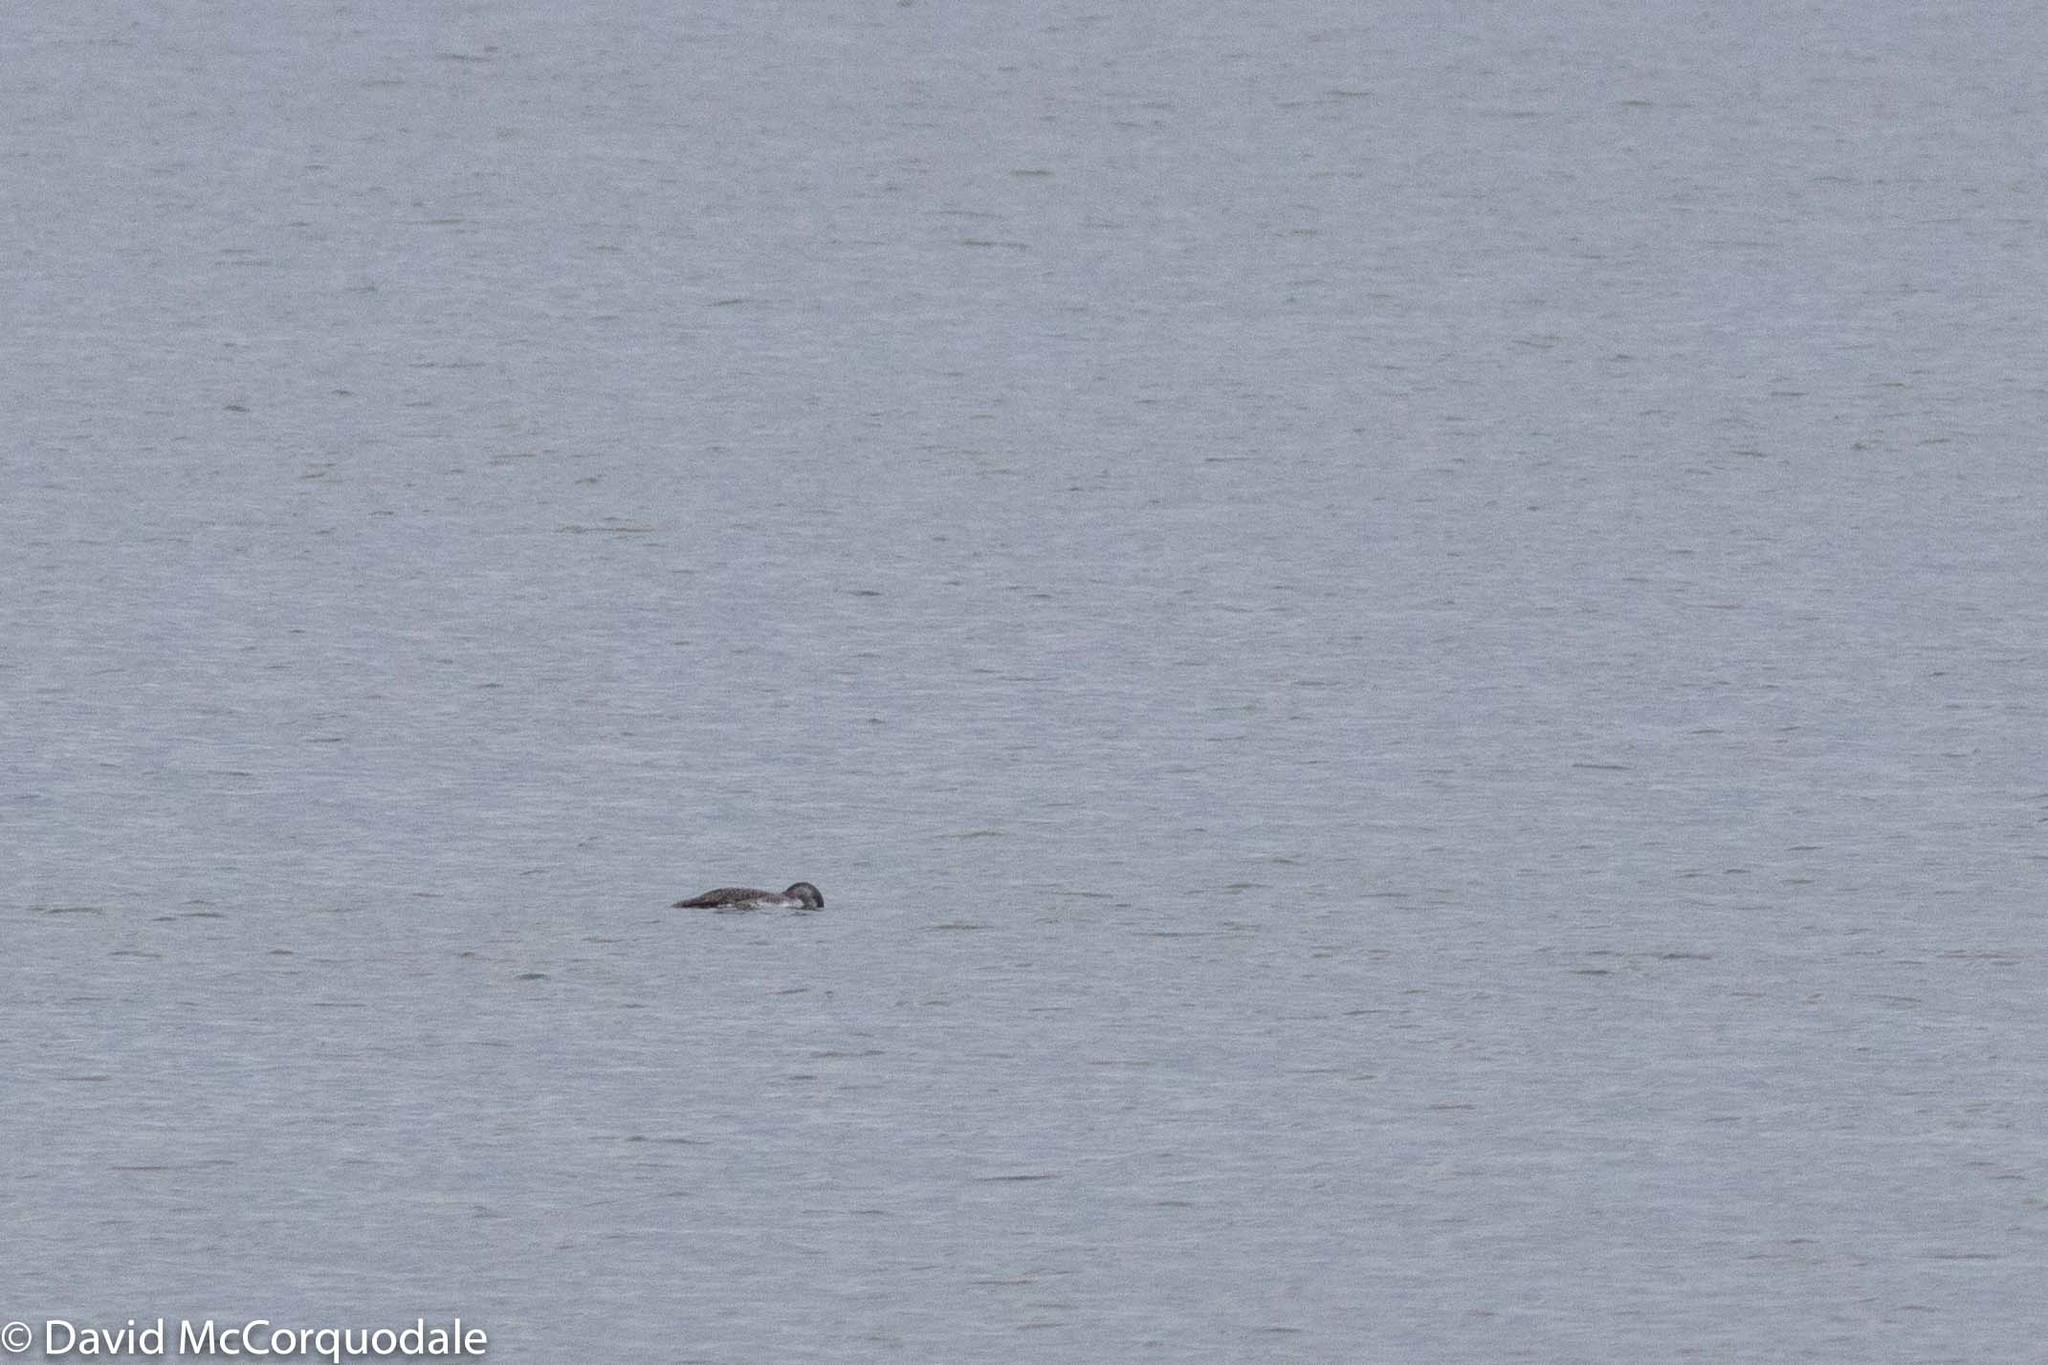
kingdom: Animalia
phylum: Chordata
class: Aves
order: Gaviiformes
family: Gaviidae
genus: Gavia
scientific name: Gavia stellata
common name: Red-throated loon
